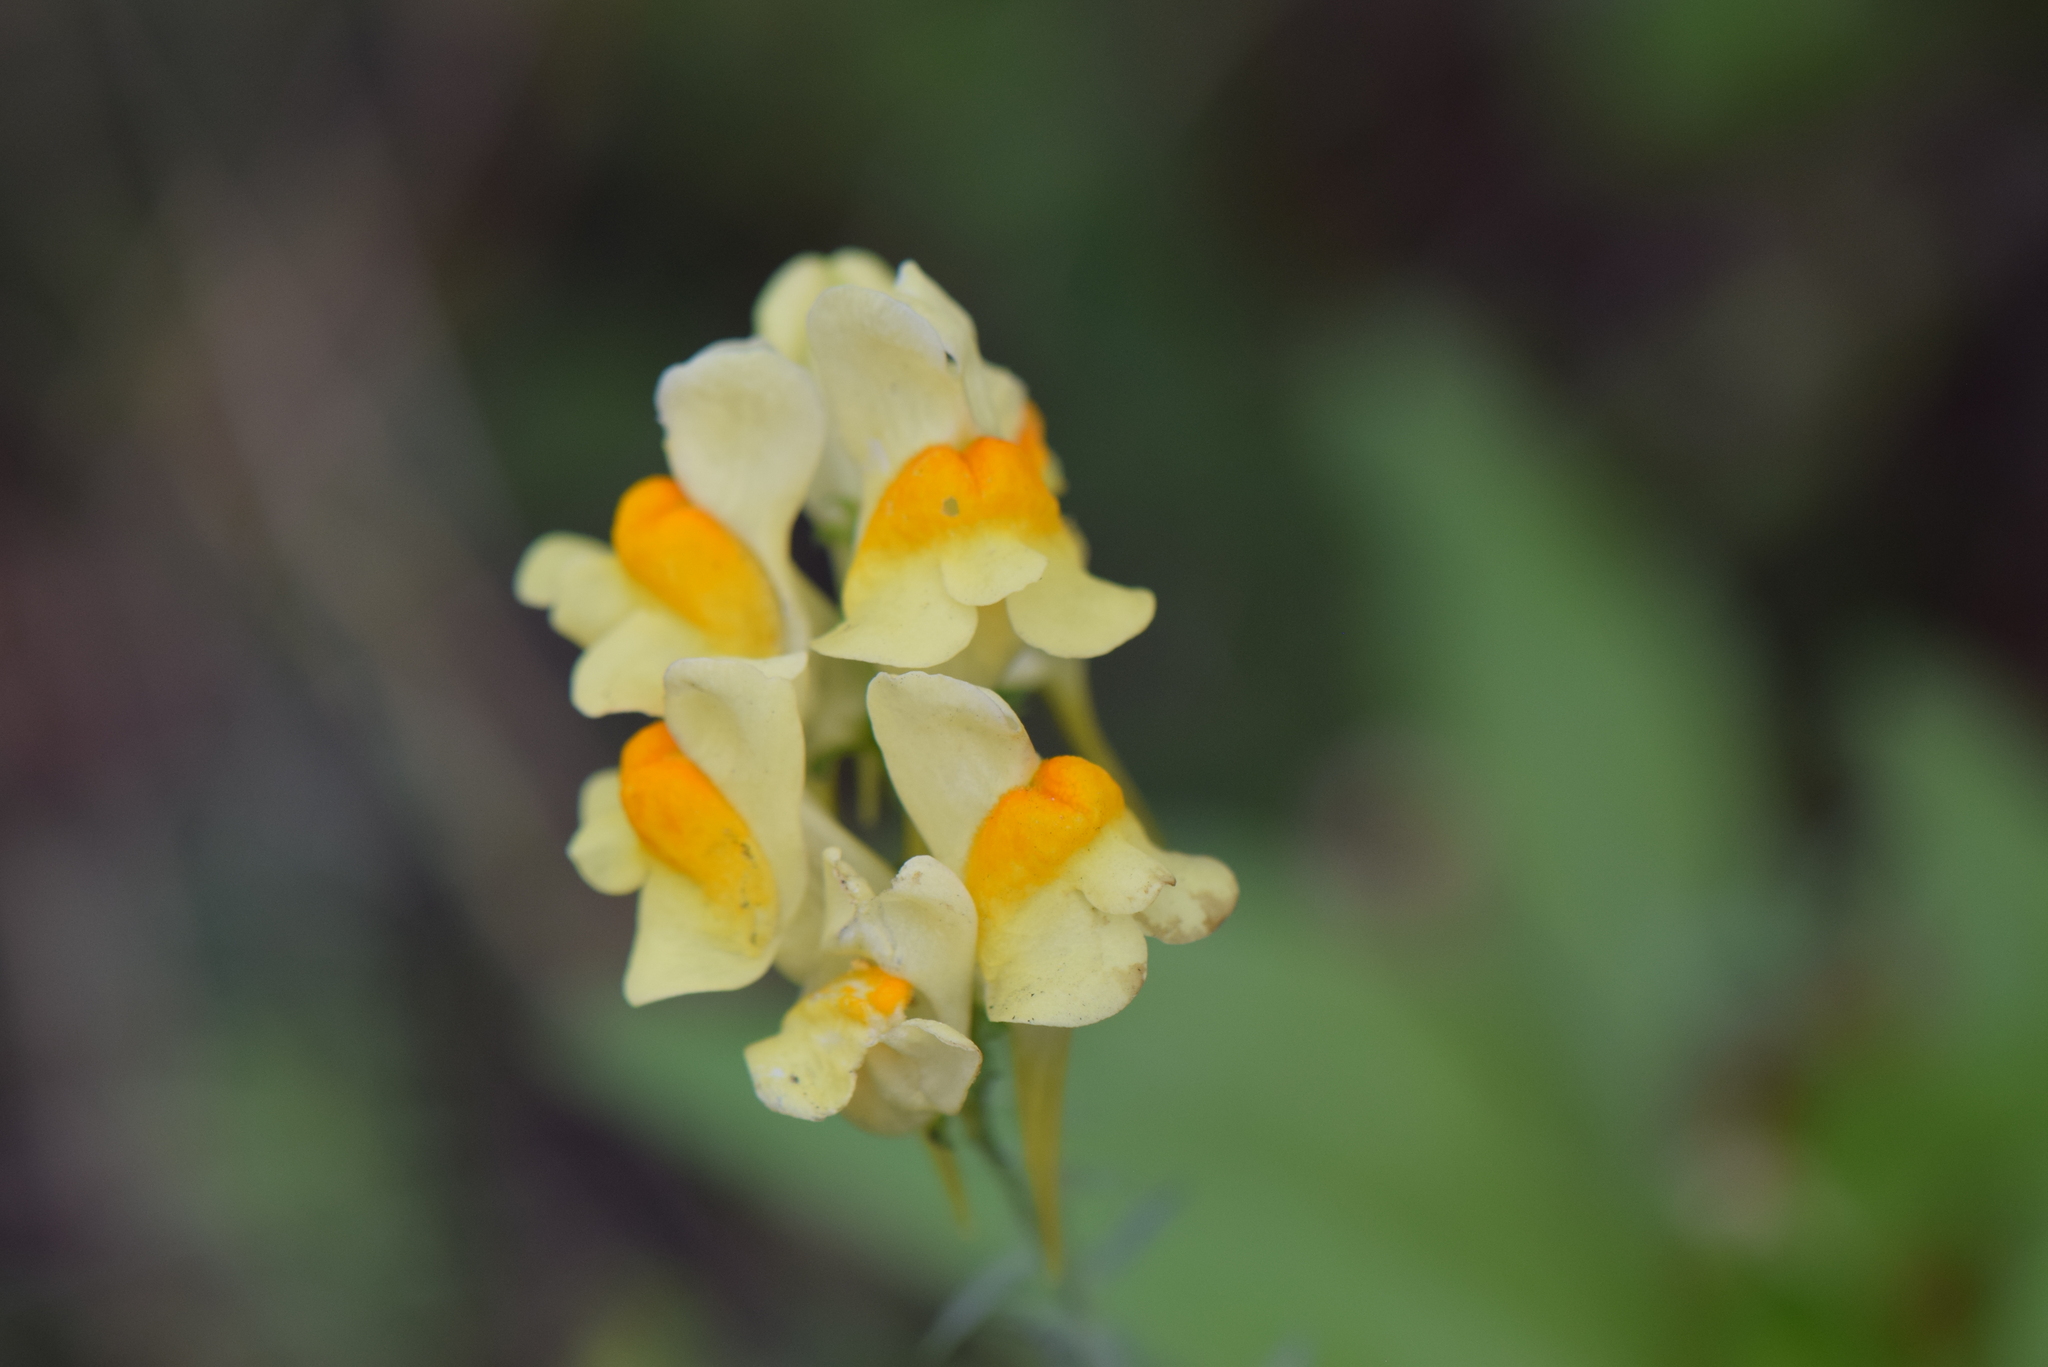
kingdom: Plantae
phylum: Tracheophyta
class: Magnoliopsida
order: Lamiales
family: Plantaginaceae
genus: Linaria
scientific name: Linaria vulgaris
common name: Butter and eggs
